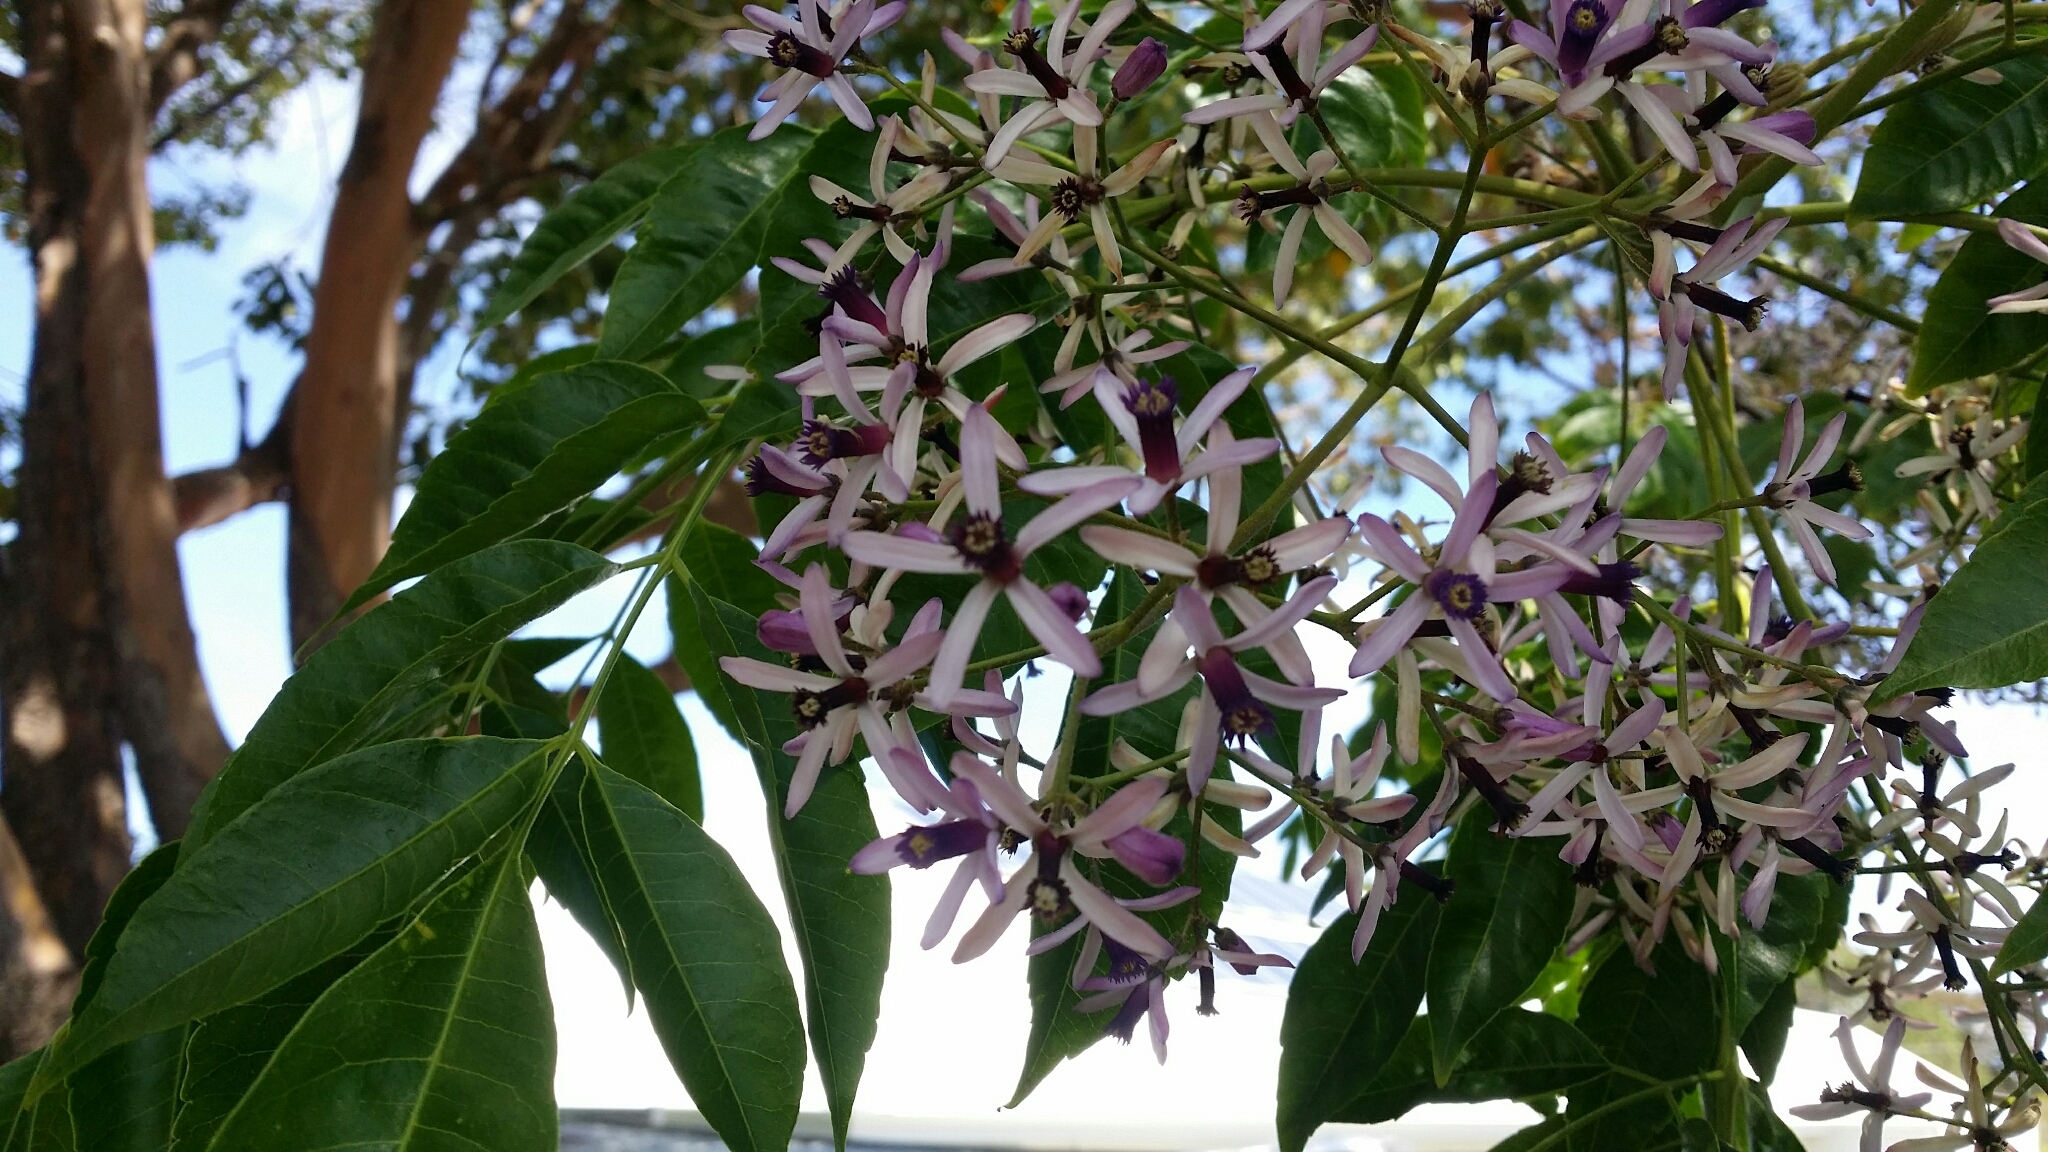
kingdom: Plantae
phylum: Tracheophyta
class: Magnoliopsida
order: Sapindales
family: Meliaceae
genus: Melia
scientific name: Melia azedarach
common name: Chinaberrytree
